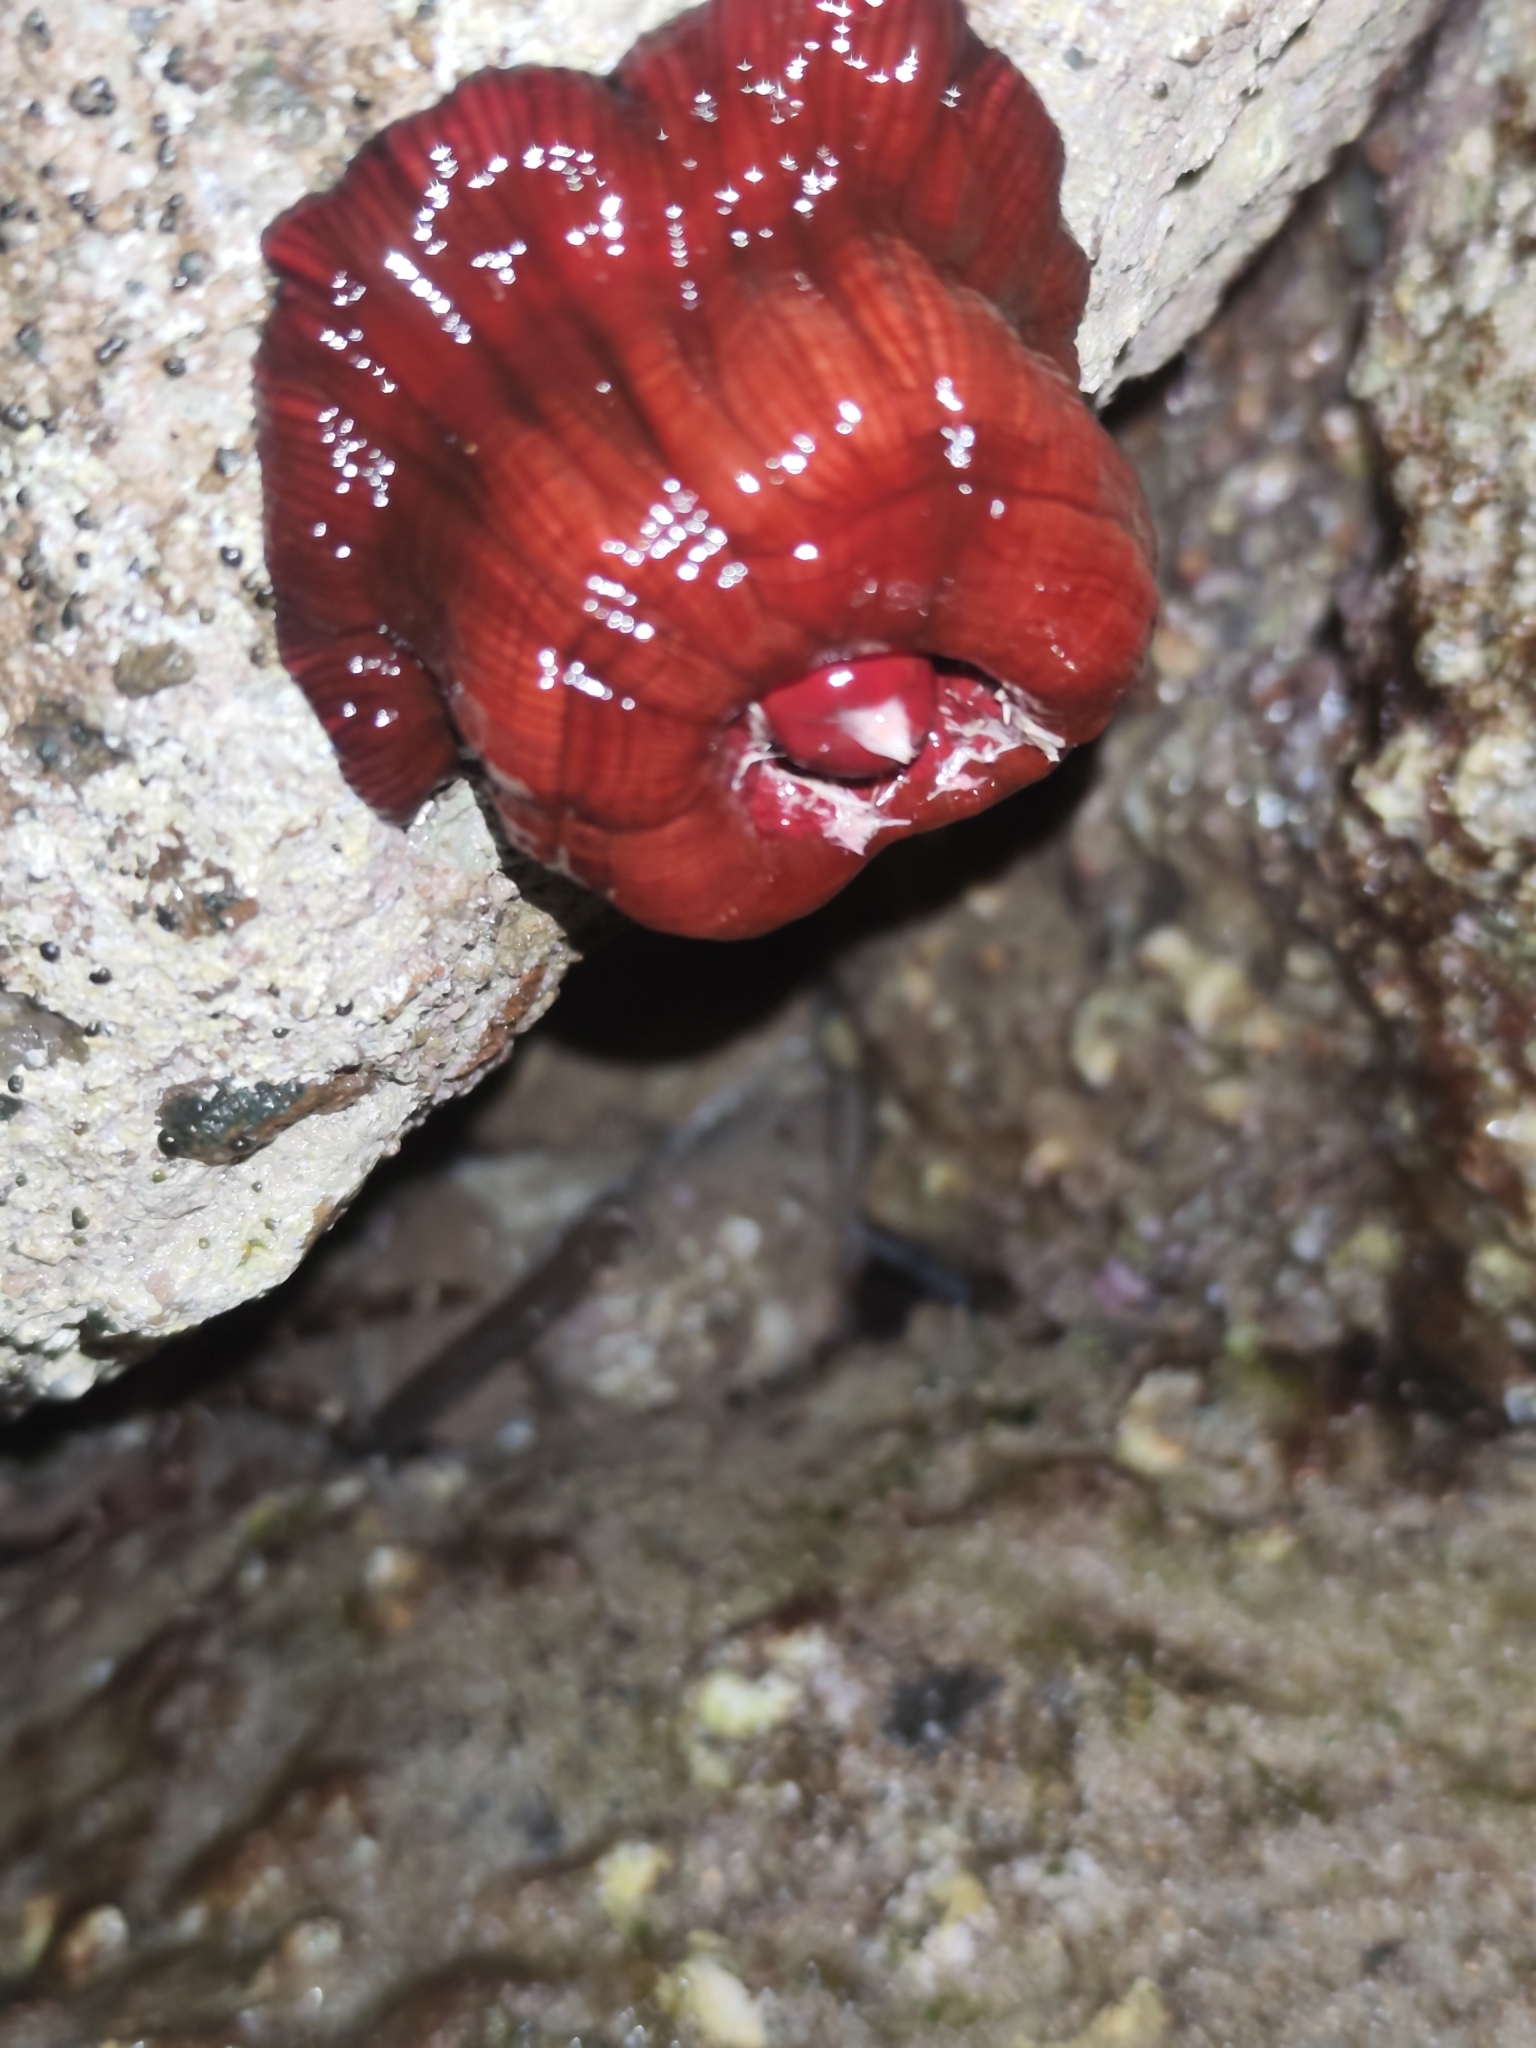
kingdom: Animalia
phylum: Cnidaria
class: Anthozoa
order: Actiniaria
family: Actiniidae
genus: Actinia
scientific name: Actinia mediterranea
